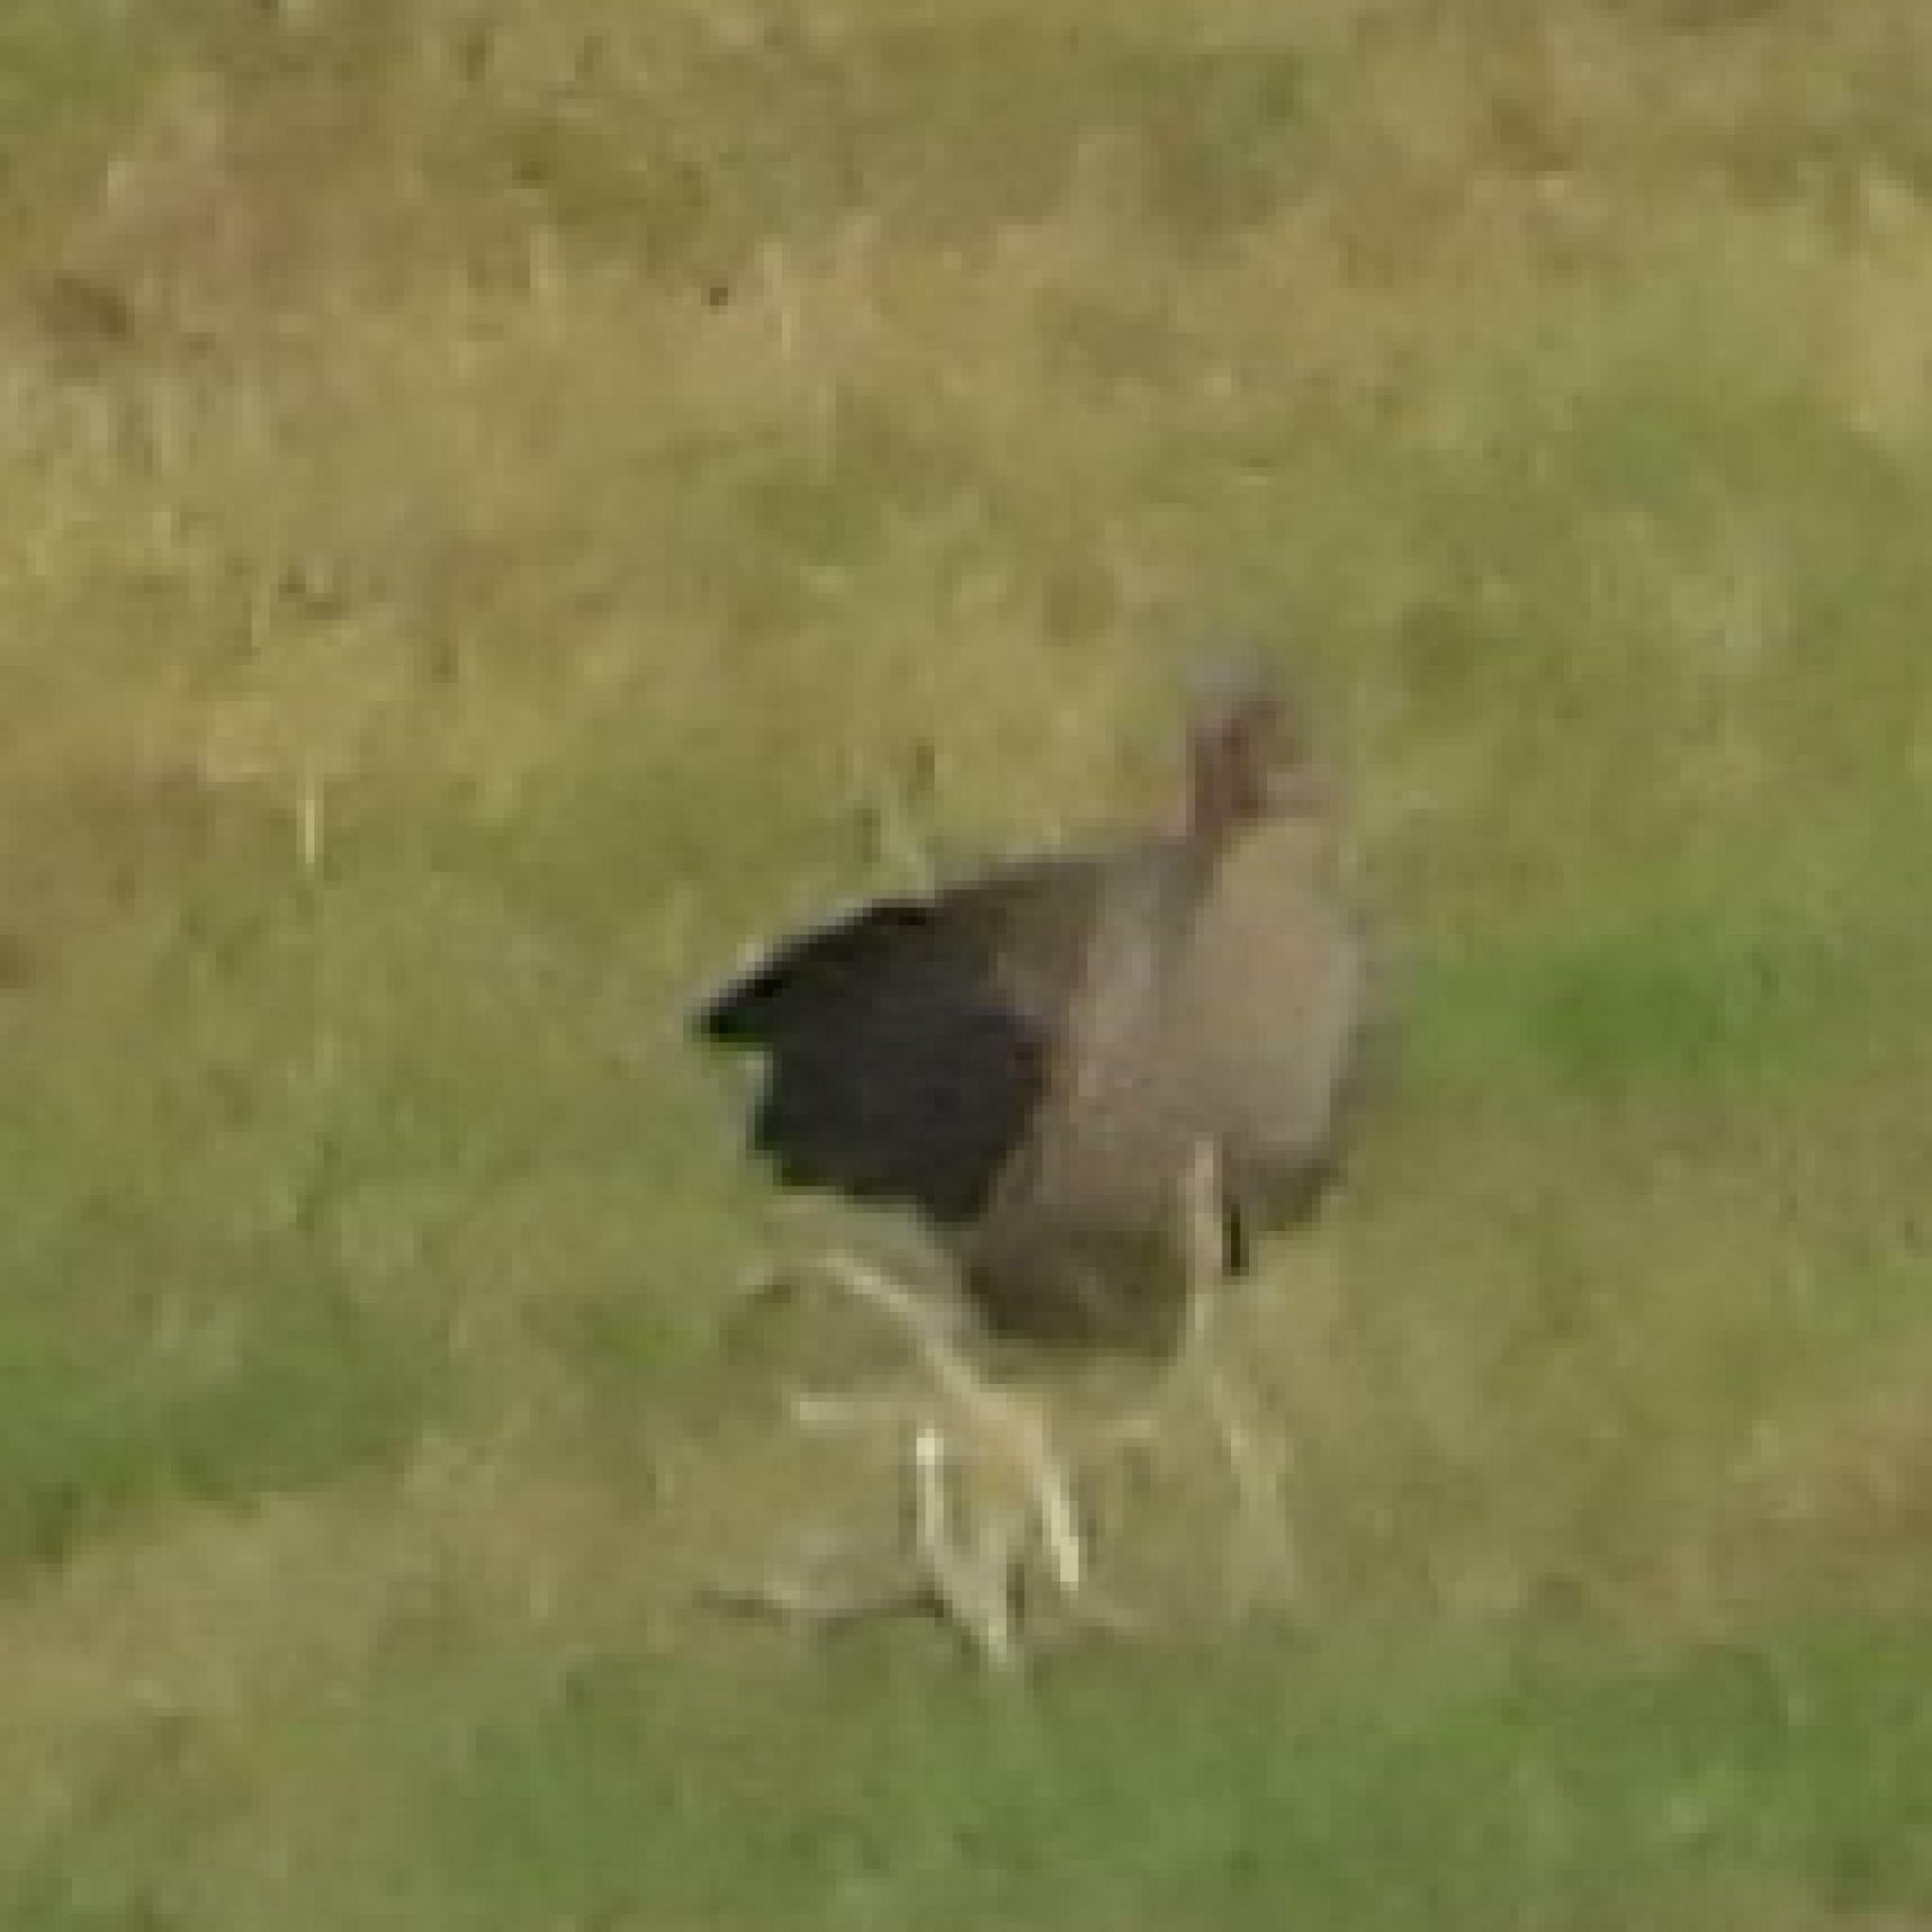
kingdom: Animalia
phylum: Chordata
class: Aves
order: Pelecaniformes
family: Threskiornithidae
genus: Bostrychia
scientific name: Bostrychia hagedash
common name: Hadada ibis
